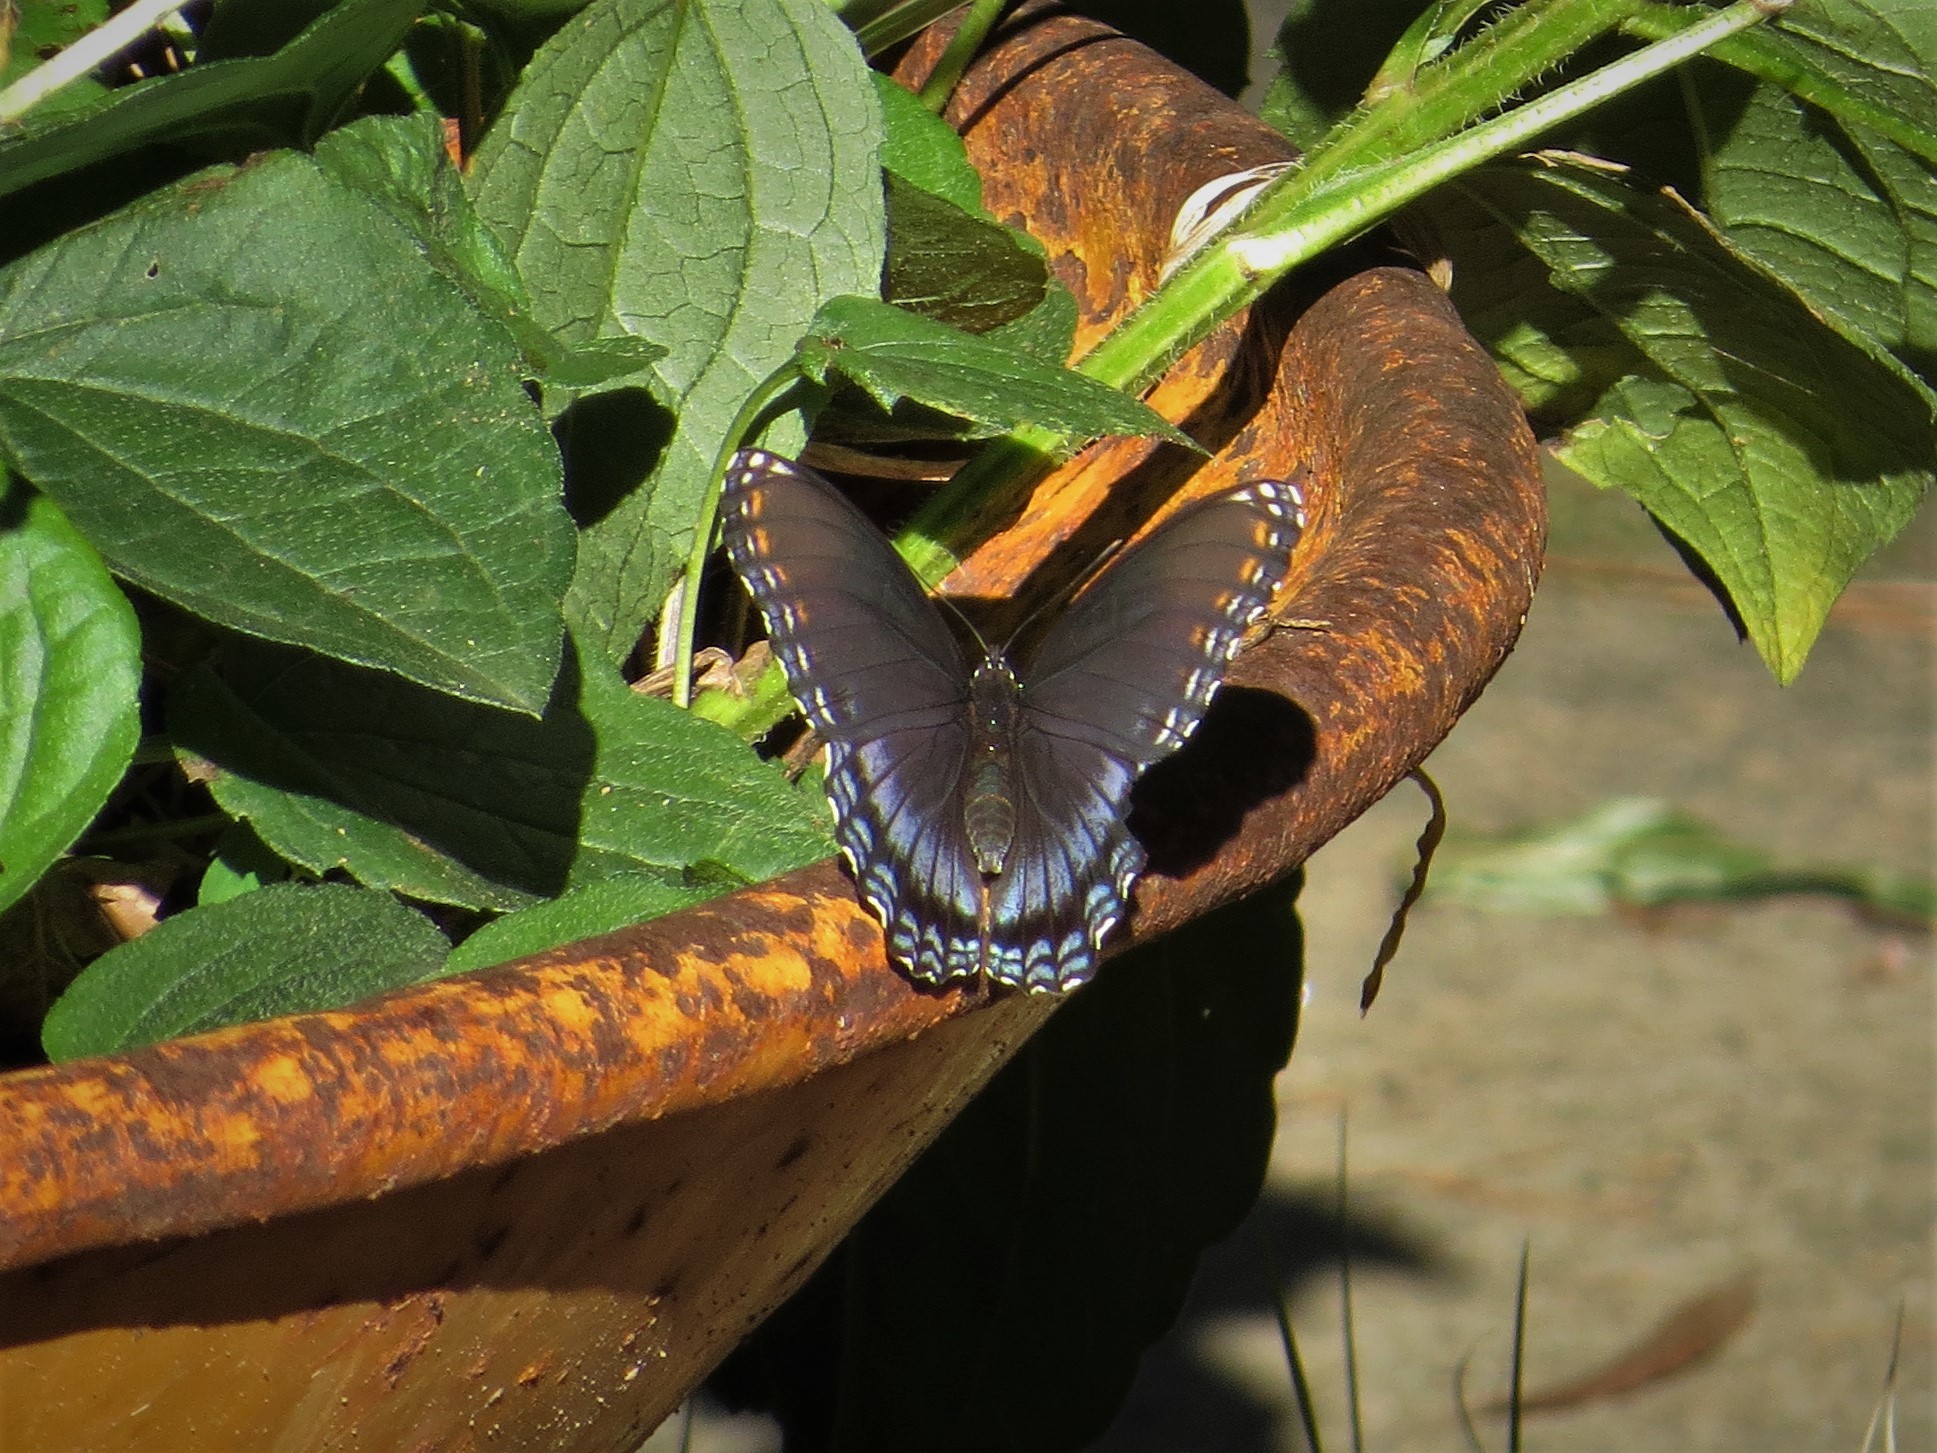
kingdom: Animalia
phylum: Arthropoda
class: Insecta
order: Lepidoptera
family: Nymphalidae
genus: Limenitis
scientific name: Limenitis astyanax
